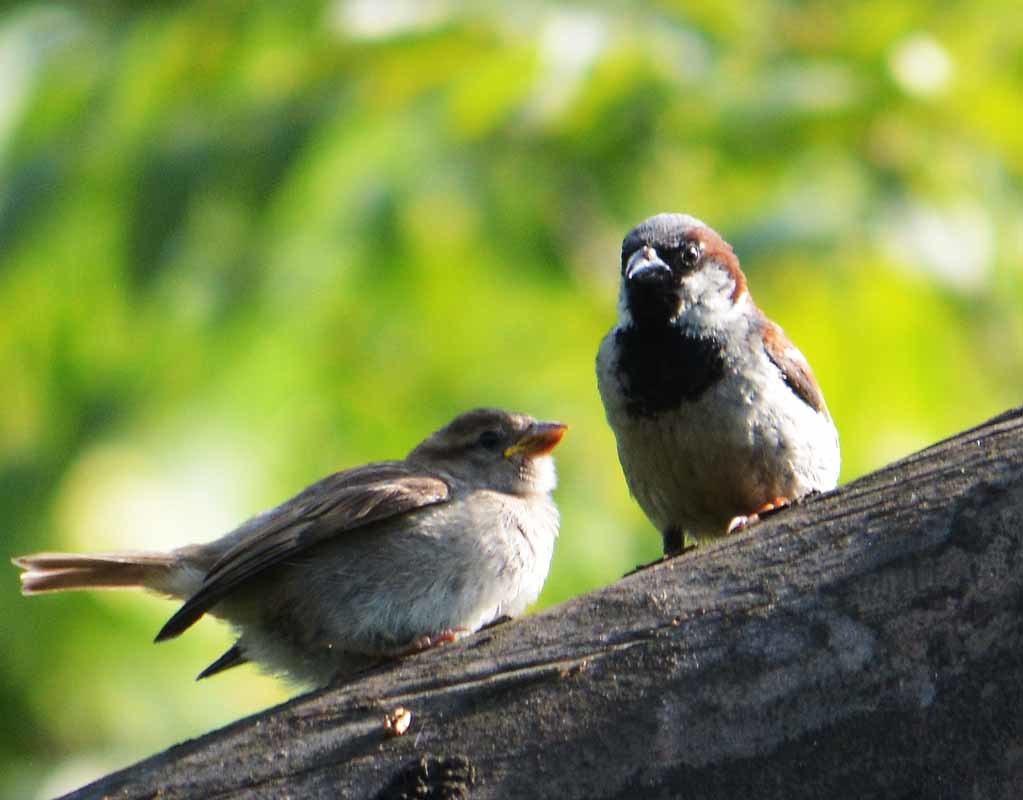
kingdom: Animalia
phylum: Chordata
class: Aves
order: Passeriformes
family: Passeridae
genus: Passer
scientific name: Passer domesticus
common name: House sparrow
